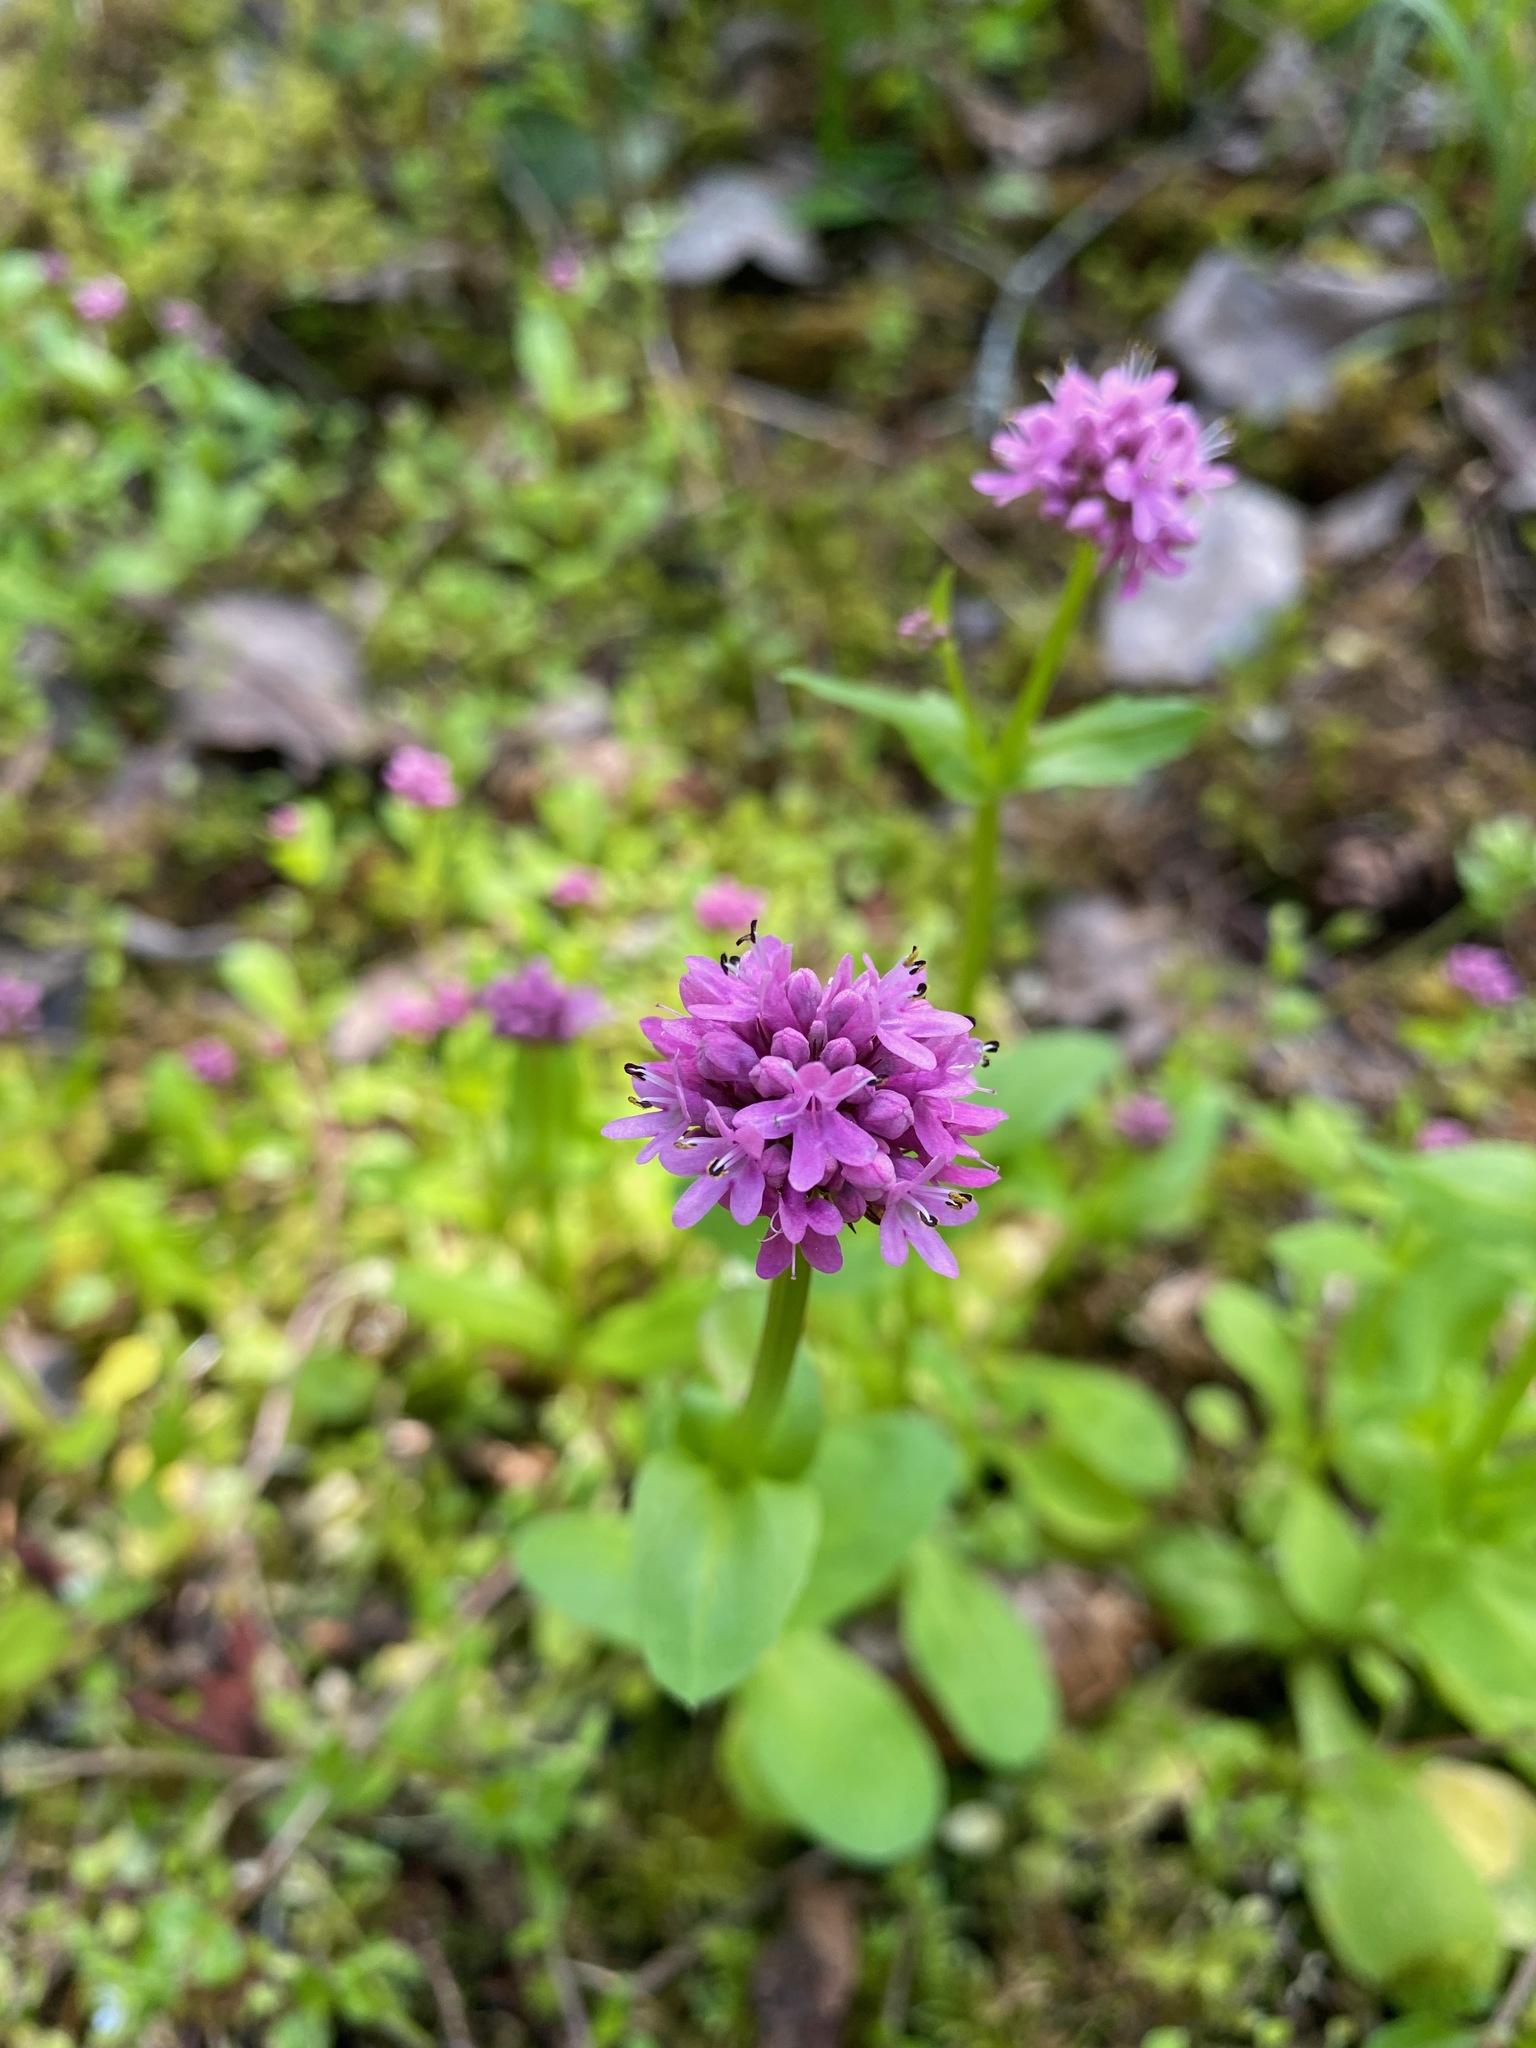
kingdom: Plantae
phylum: Tracheophyta
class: Magnoliopsida
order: Dipsacales
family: Caprifoliaceae
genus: Plectritis
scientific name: Plectritis congesta
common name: Pink plectritis
